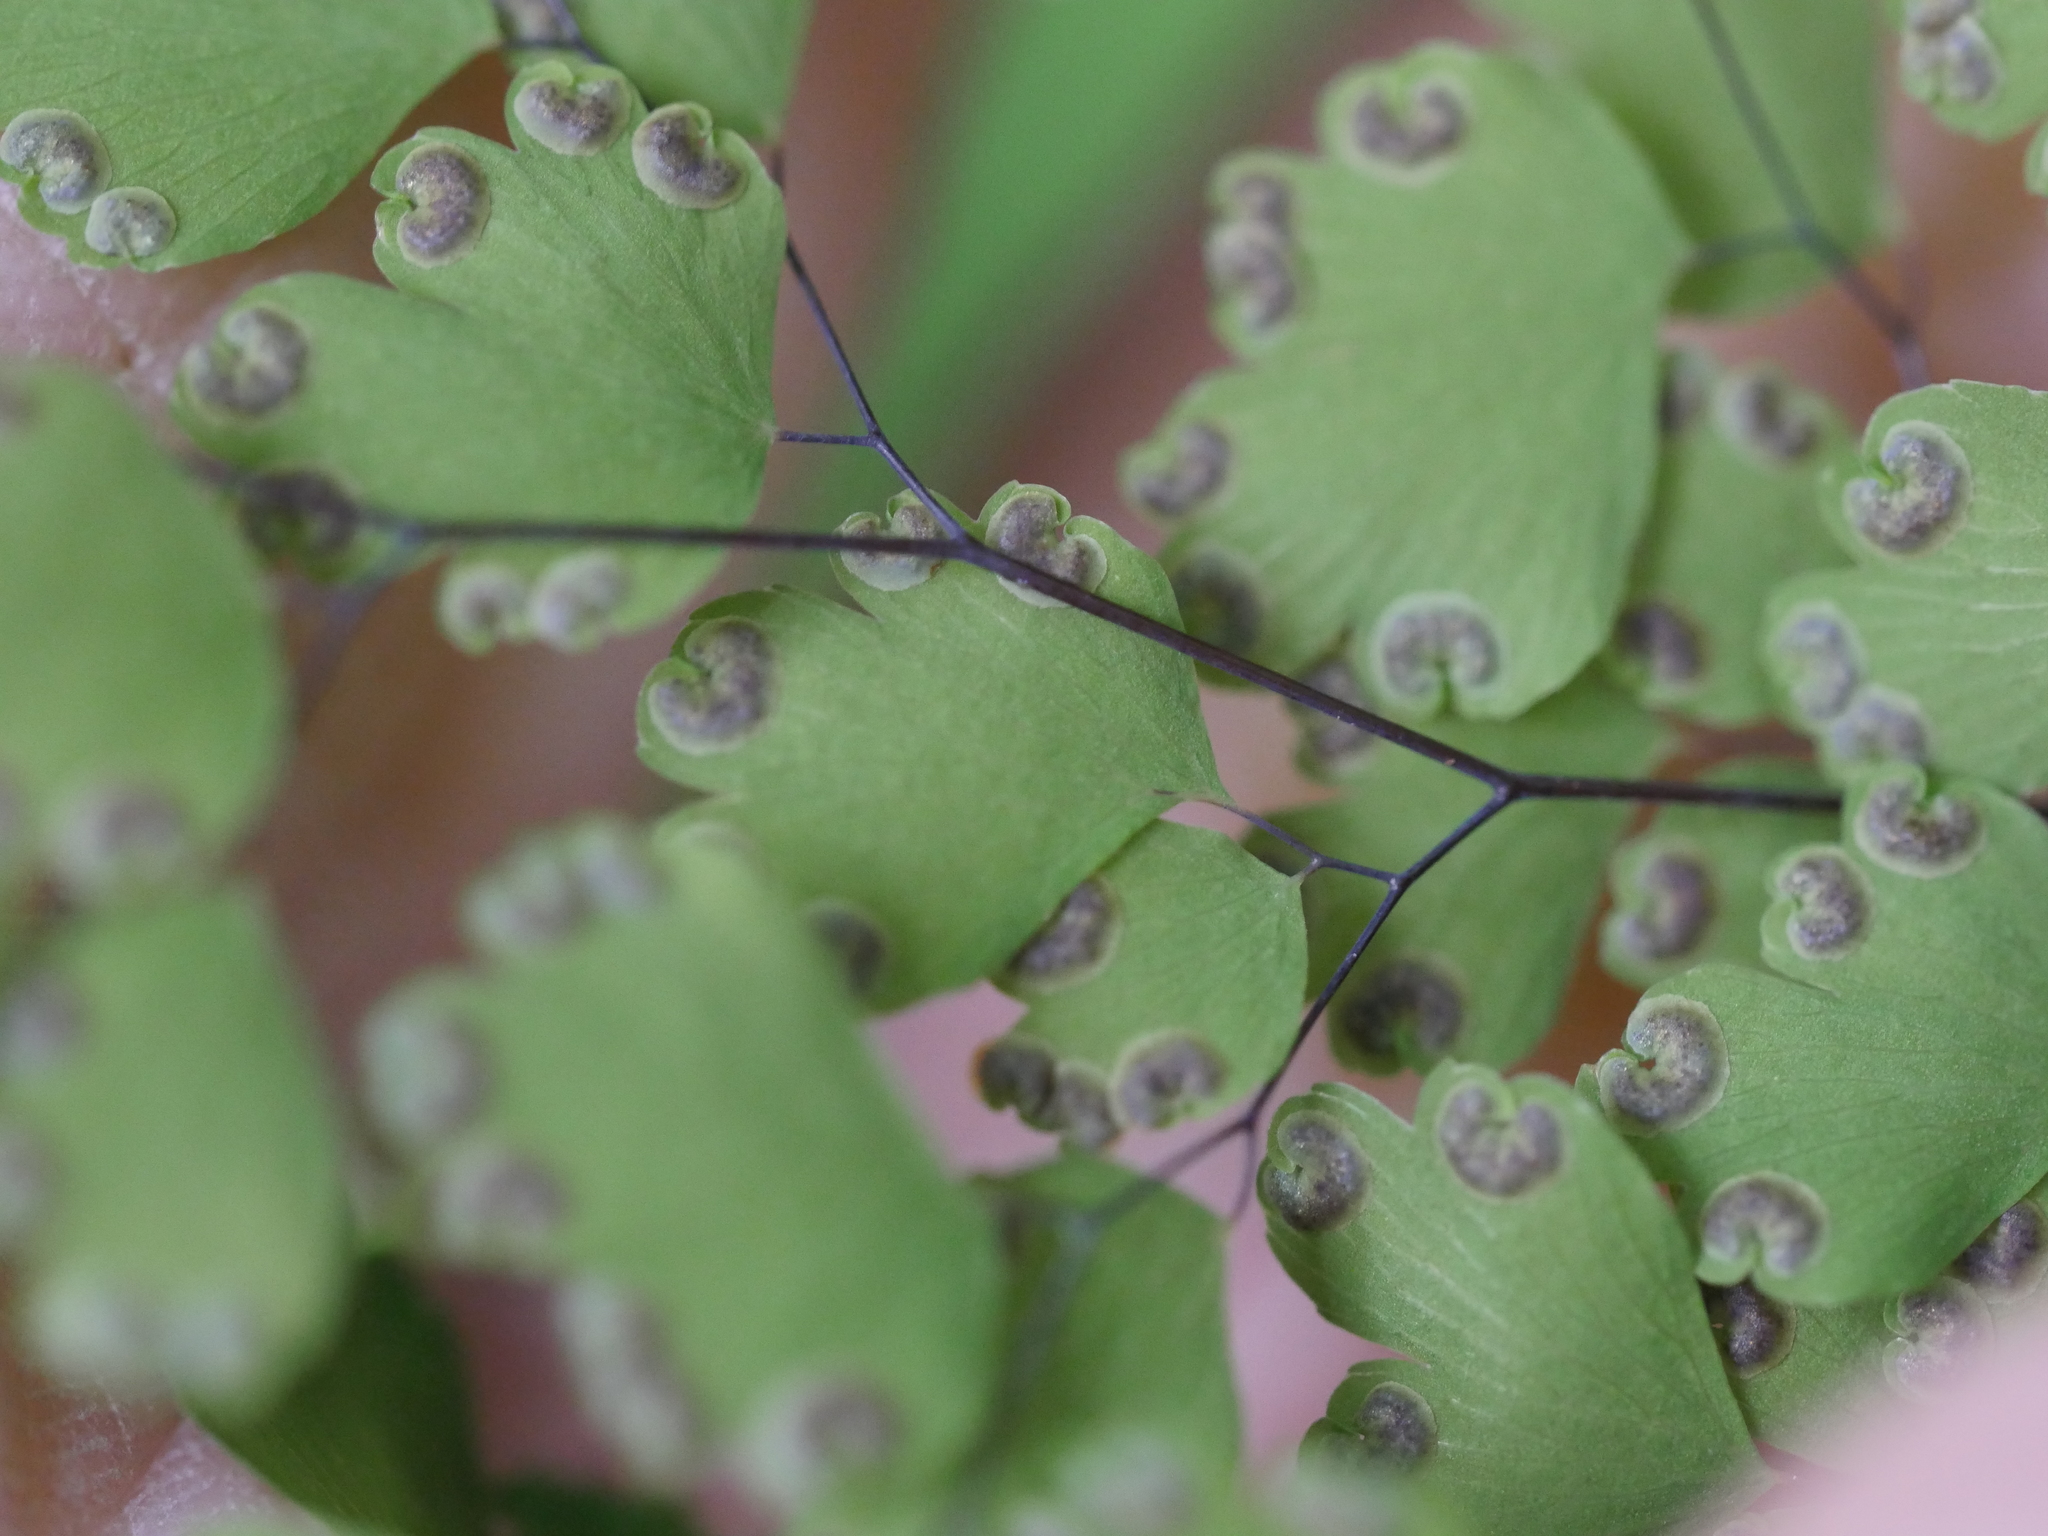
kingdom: Plantae
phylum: Tracheophyta
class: Polypodiopsida
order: Polypodiales
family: Pteridaceae
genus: Adiantum
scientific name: Adiantum raddianum
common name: Delta maidenhair fern
